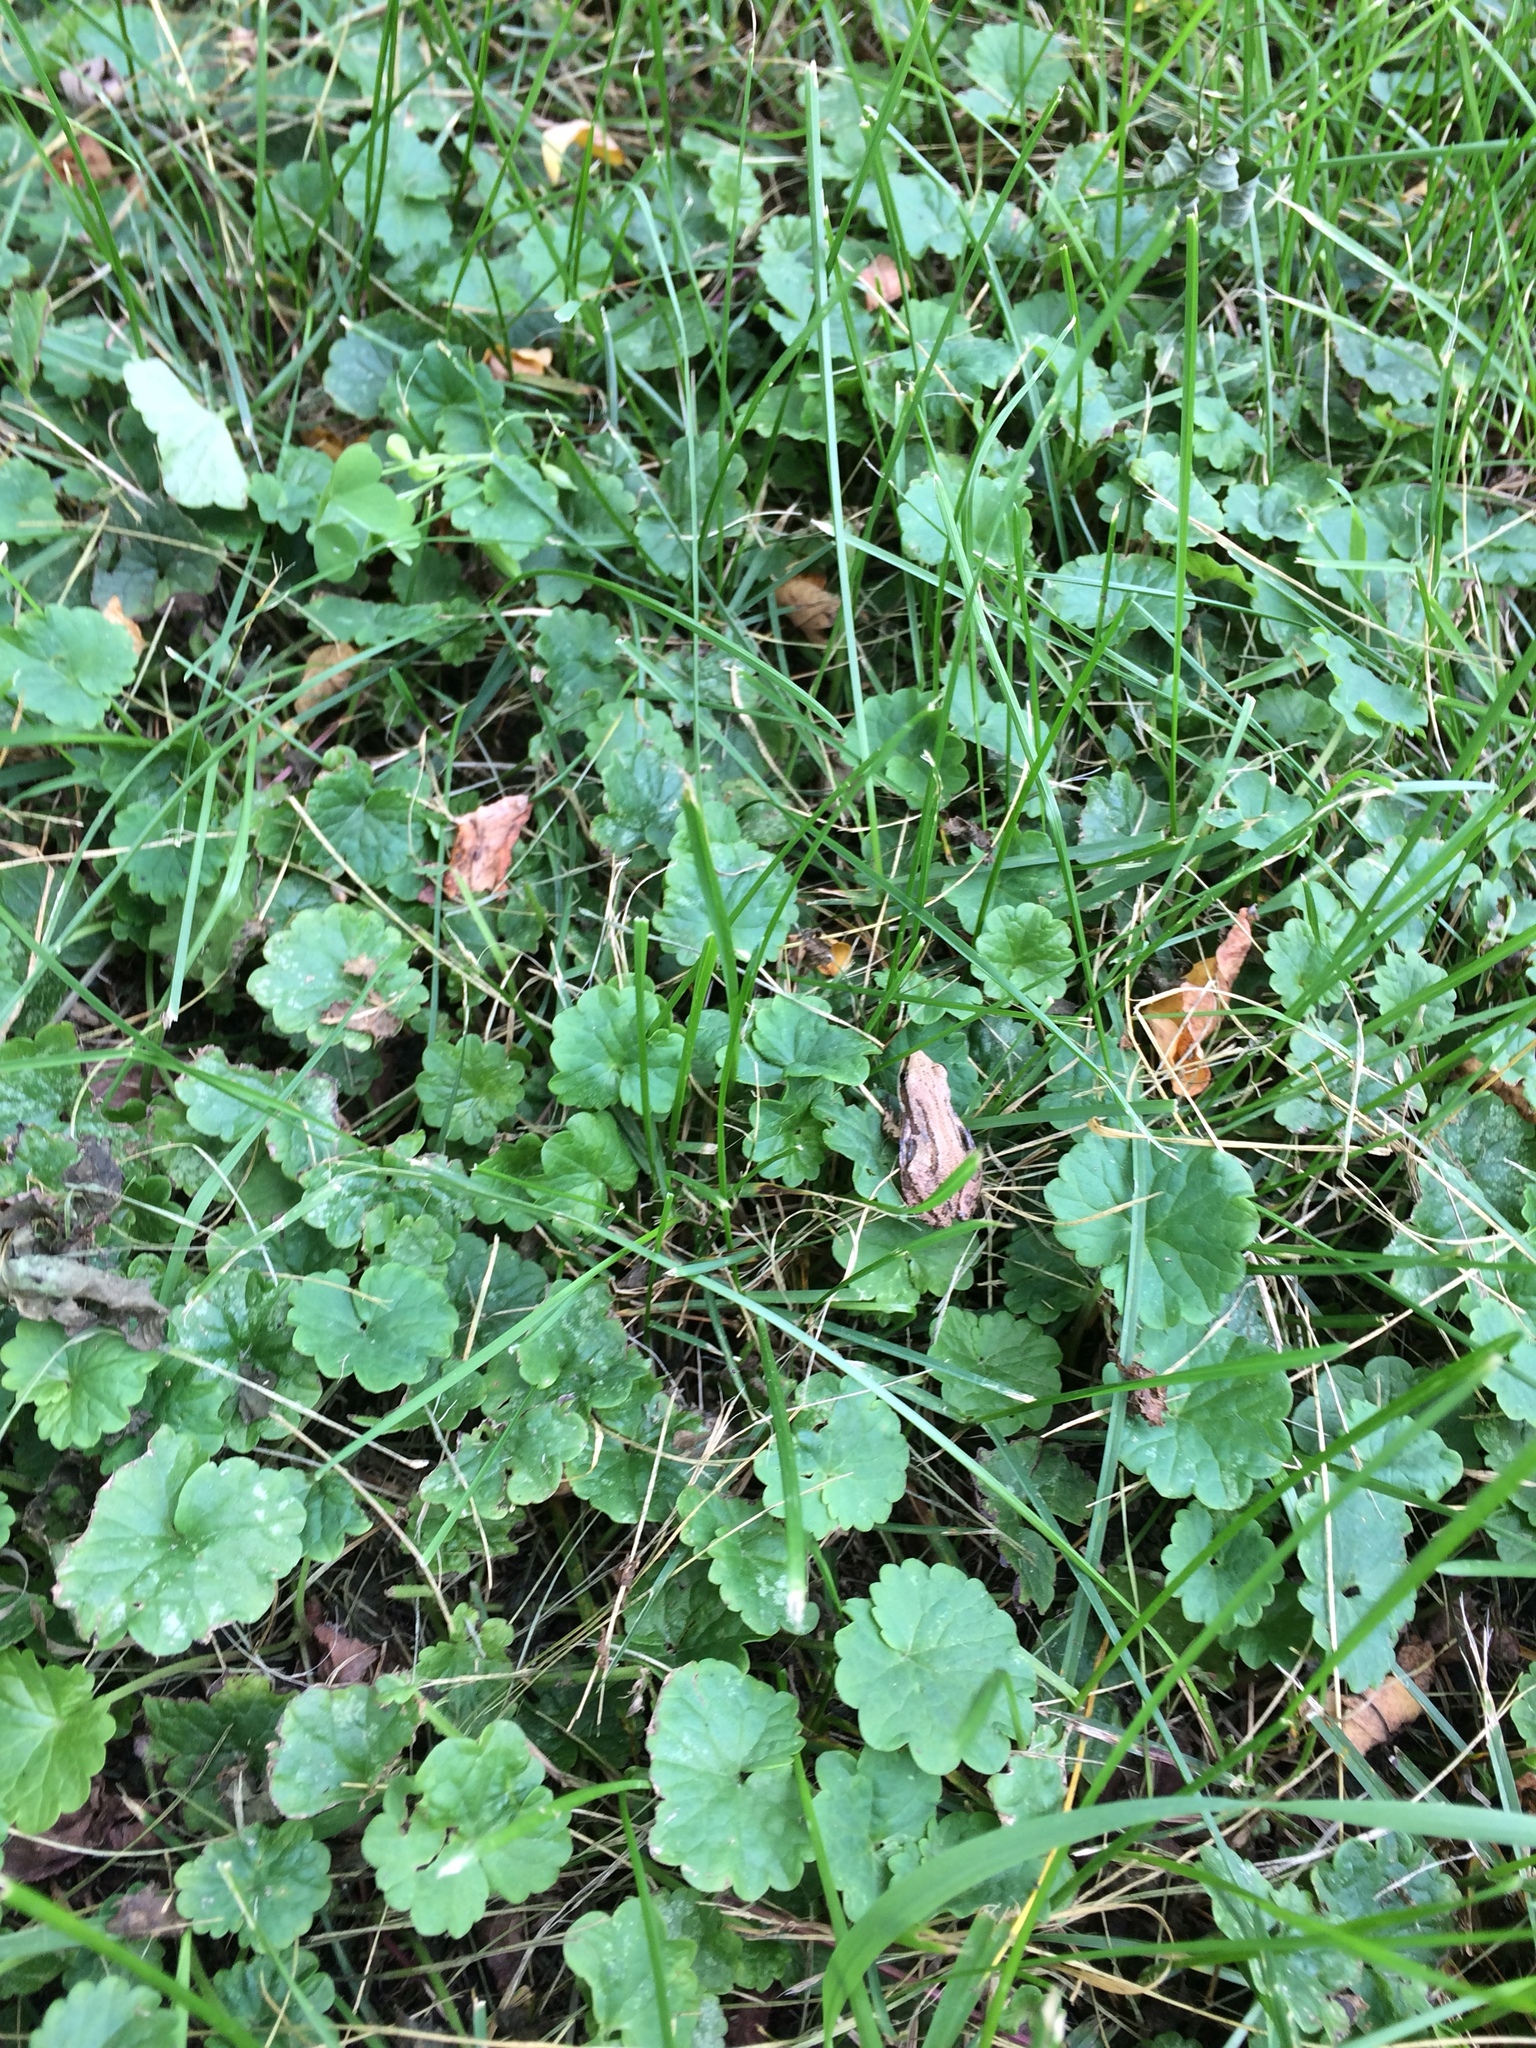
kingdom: Animalia
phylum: Chordata
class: Amphibia
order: Anura
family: Hylidae
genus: Pseudacris
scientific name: Pseudacris maculata
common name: Boreal chorus frog
